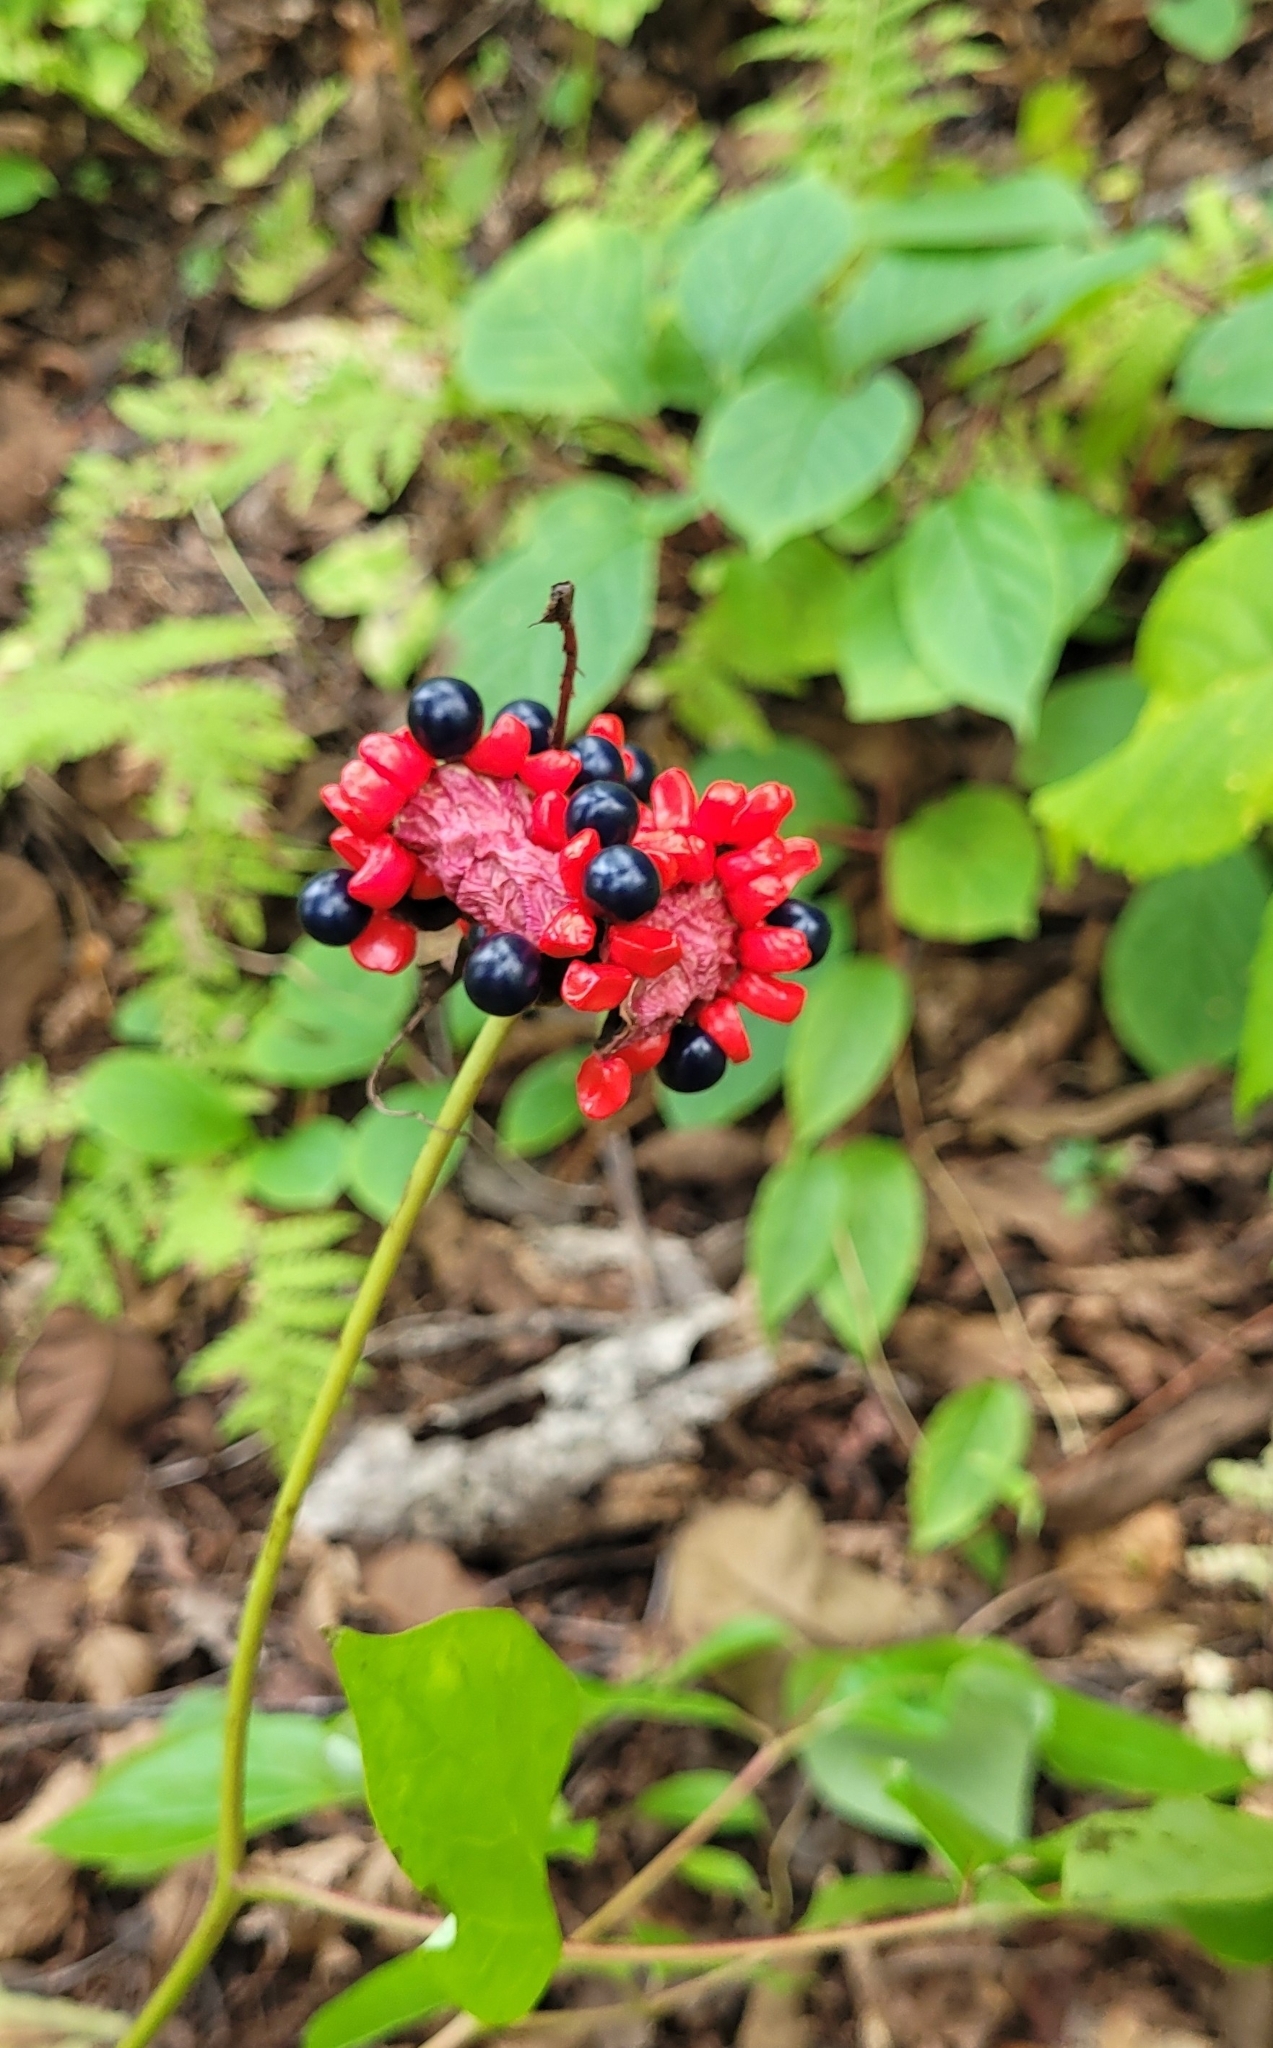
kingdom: Plantae
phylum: Tracheophyta
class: Magnoliopsida
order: Saxifragales
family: Paeoniaceae
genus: Paeonia
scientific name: Paeonia obovata
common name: Chinese peony
